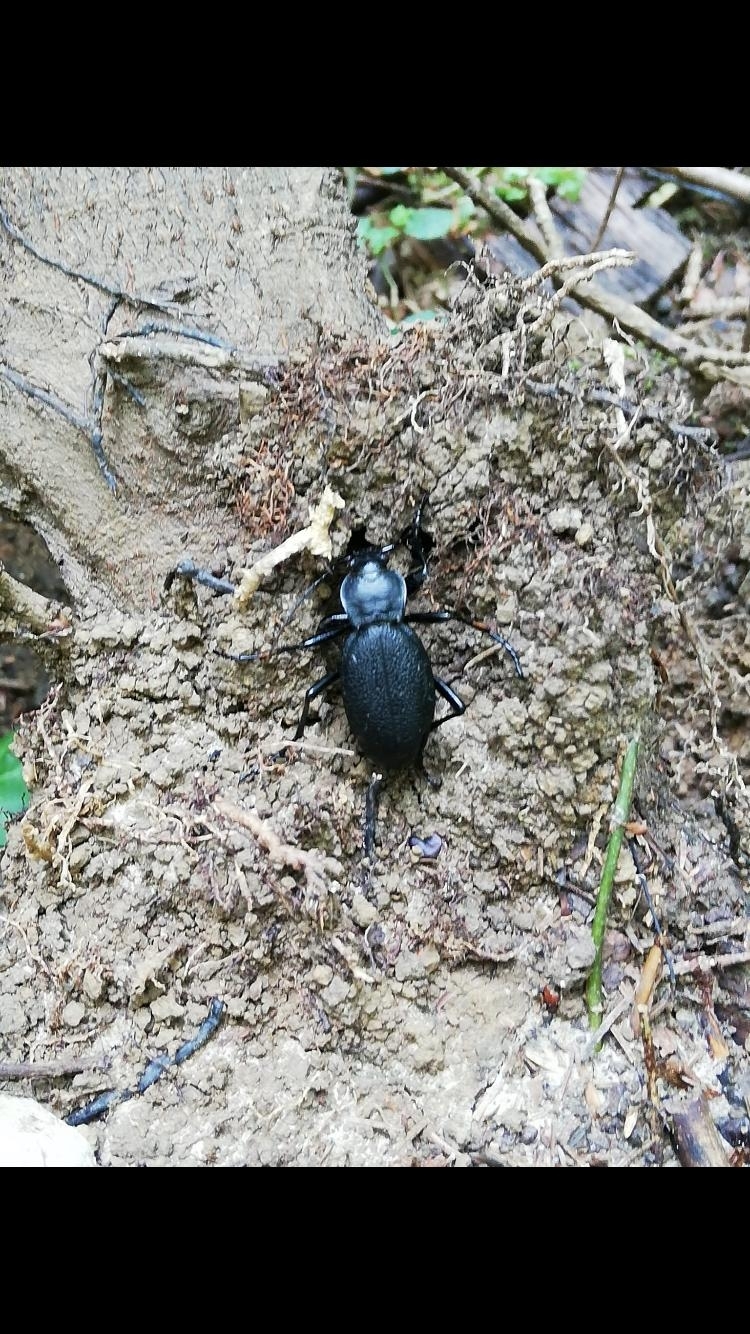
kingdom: Animalia
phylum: Arthropoda
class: Insecta
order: Coleoptera
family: Carabidae
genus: Carabus
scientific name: Carabus coriaceus
